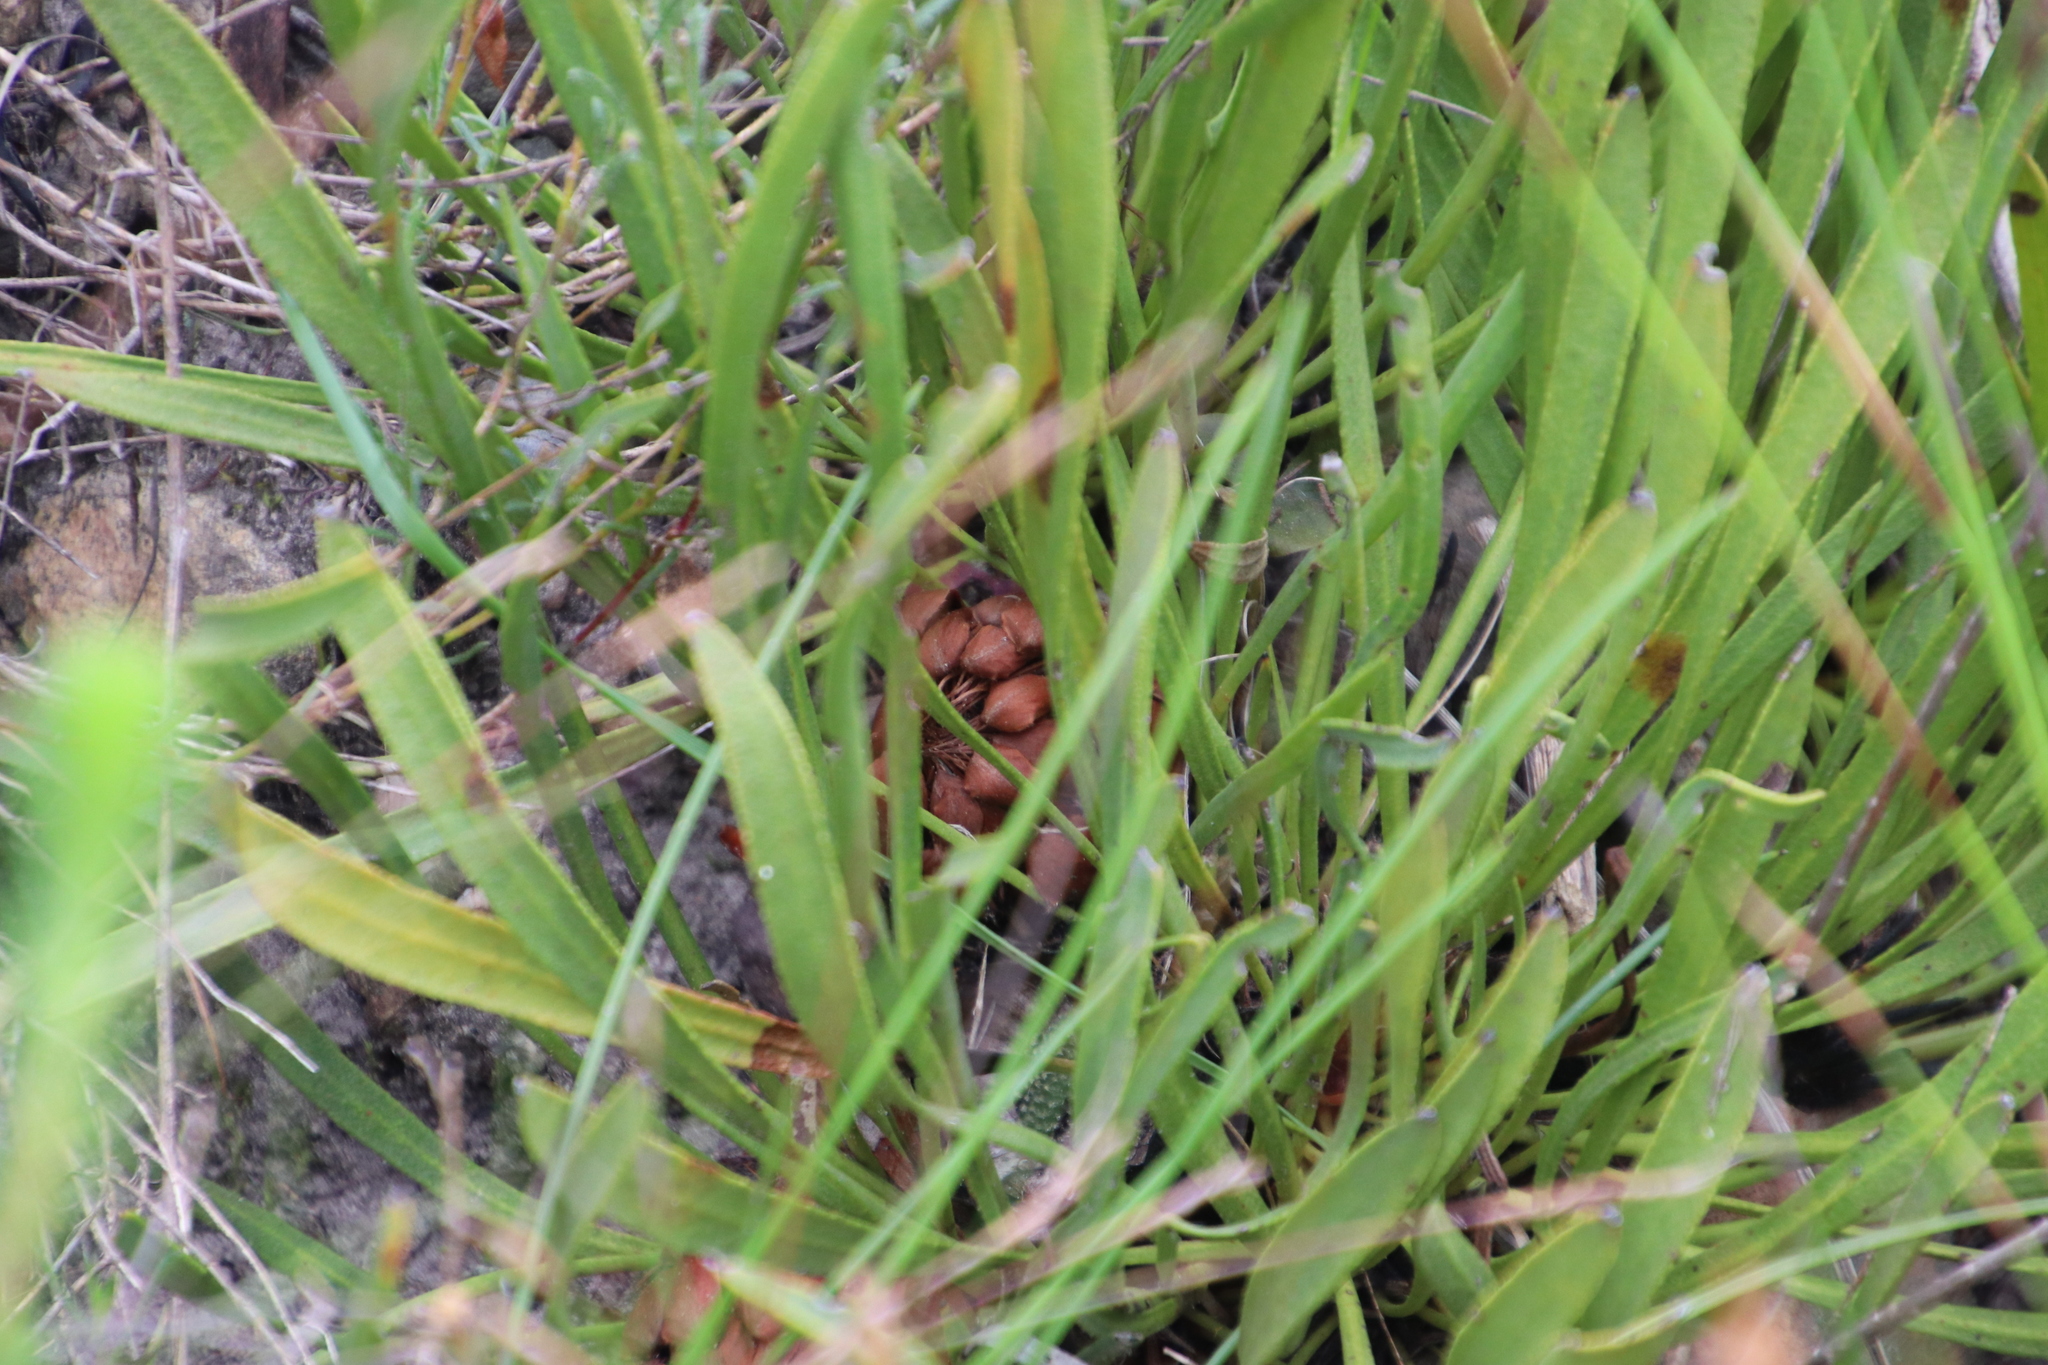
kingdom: Plantae
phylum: Tracheophyta
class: Magnoliopsida
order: Proteales
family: Proteaceae
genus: Protea
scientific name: Protea scabra
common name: Sandpaper-leaf sugarbush
